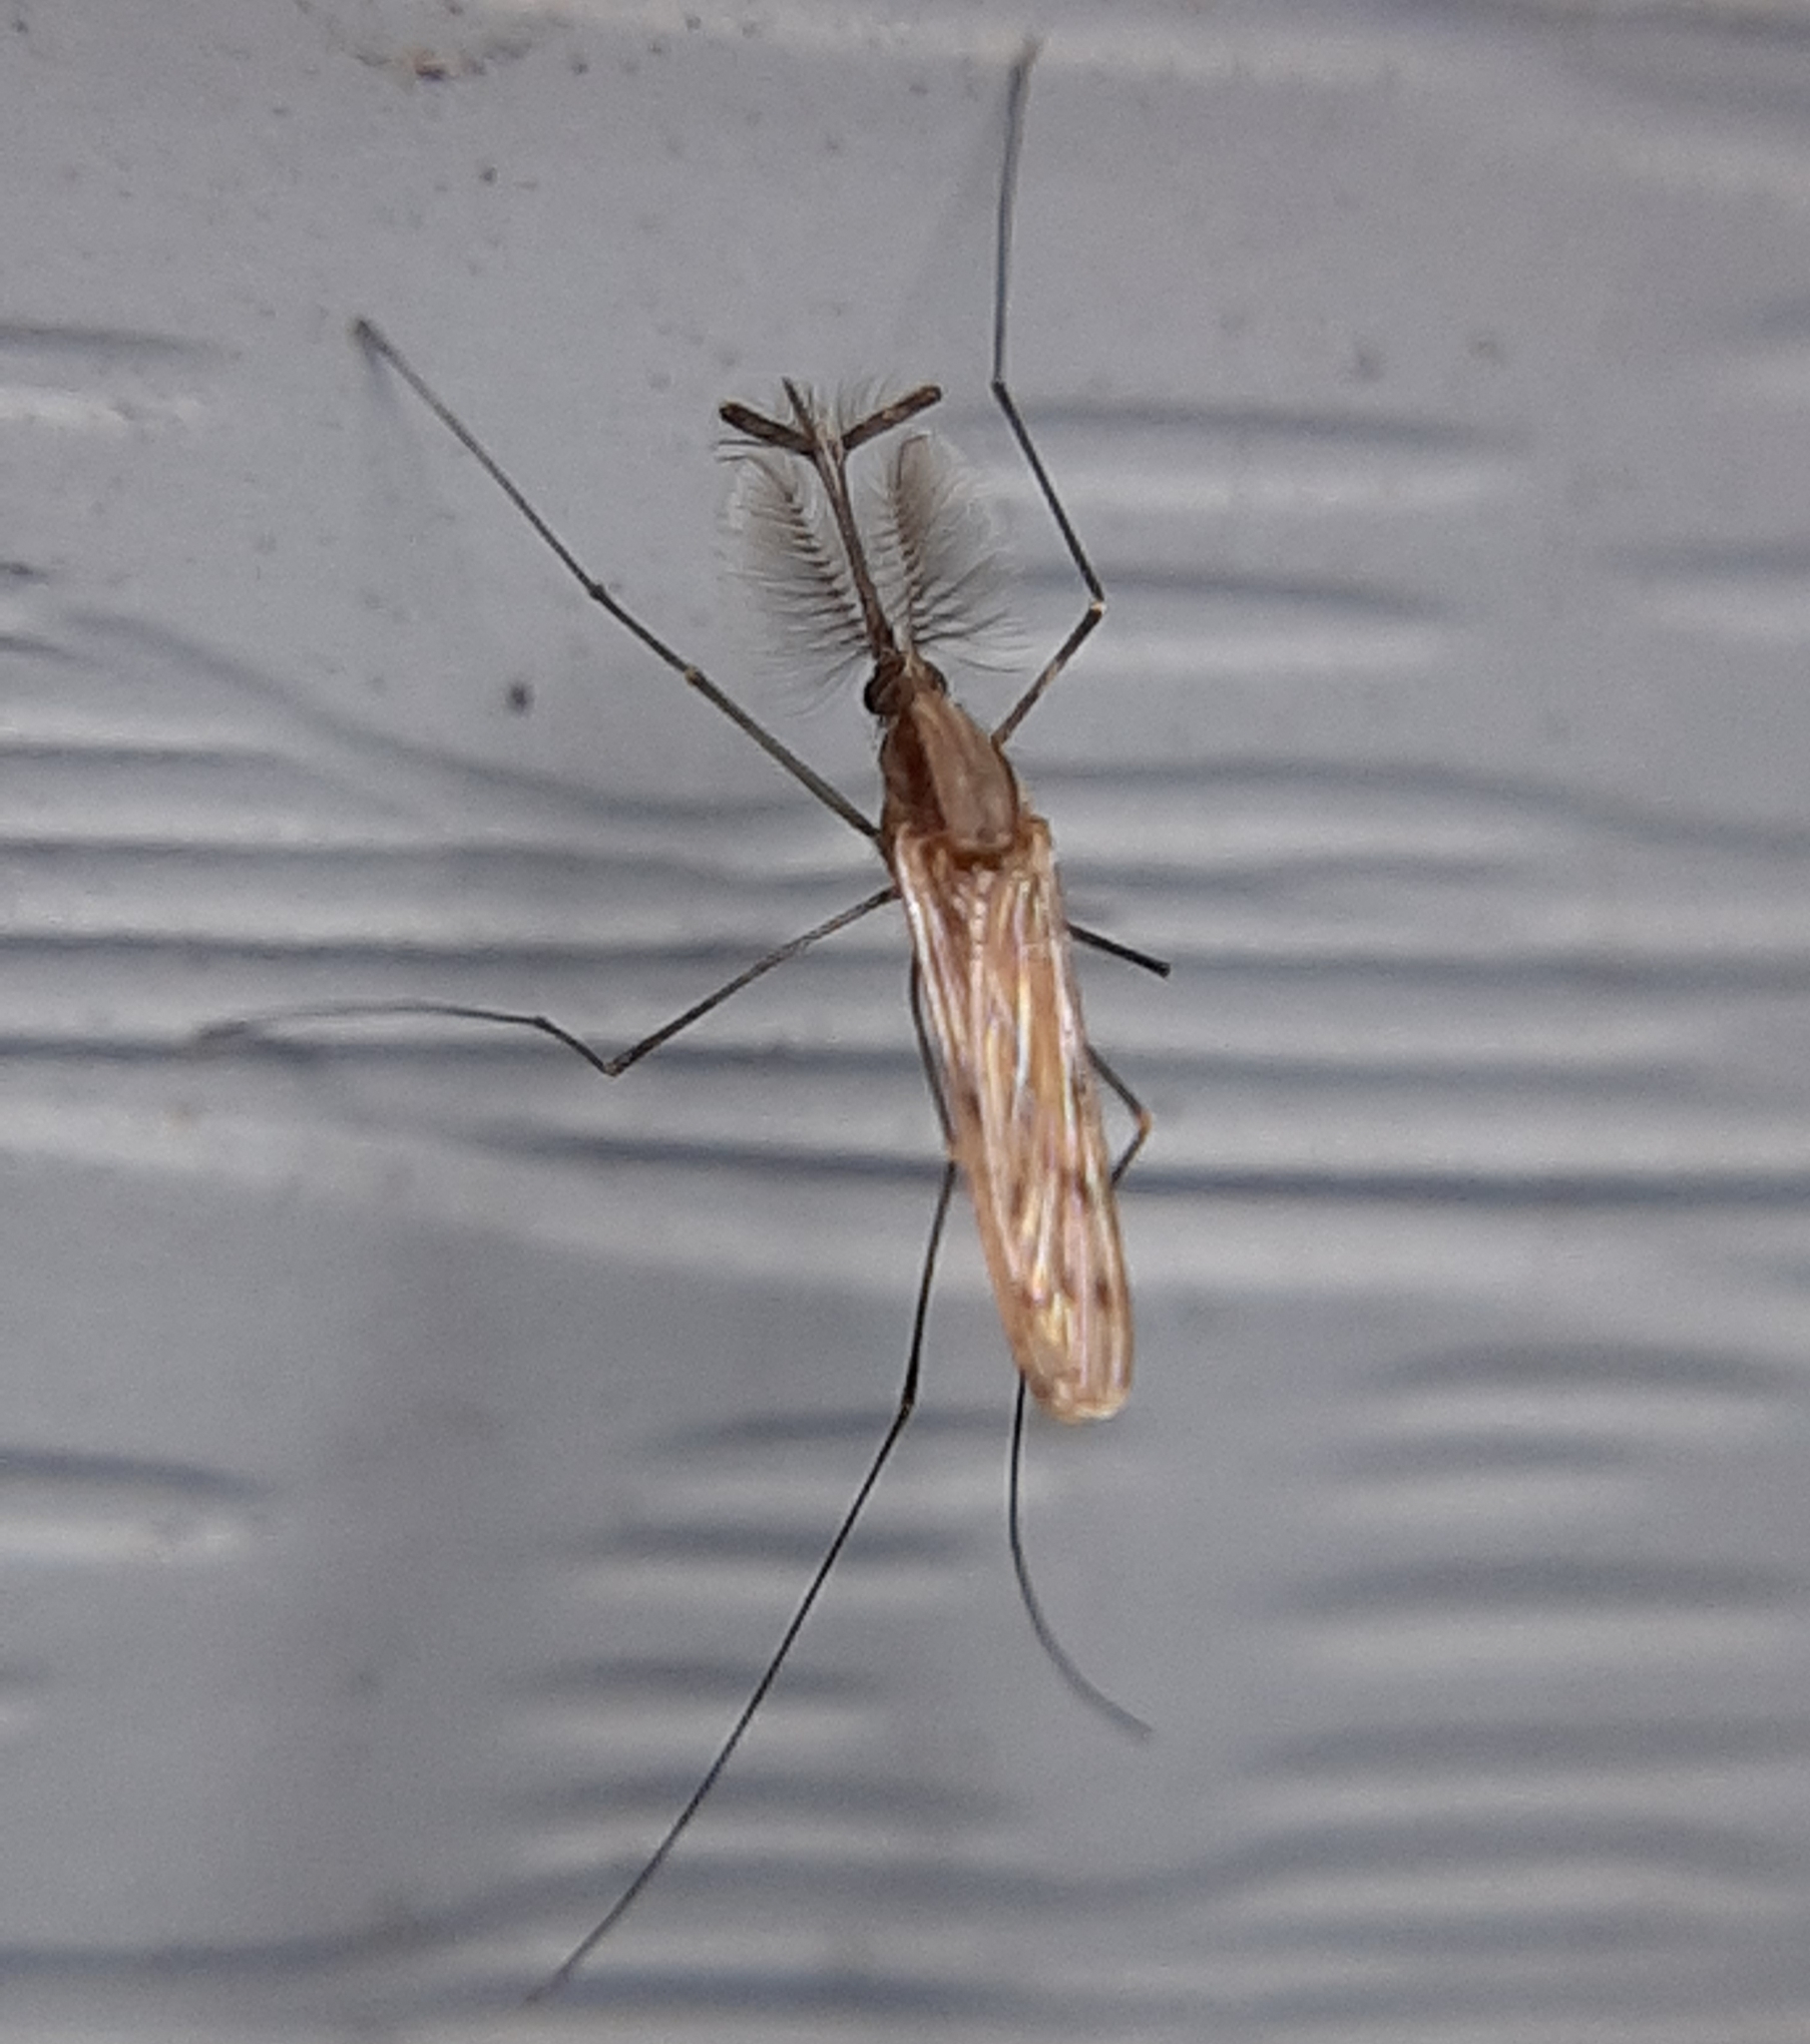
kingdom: Animalia
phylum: Arthropoda
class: Insecta
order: Diptera
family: Culicidae
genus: Anopheles
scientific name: Anopheles earlei
